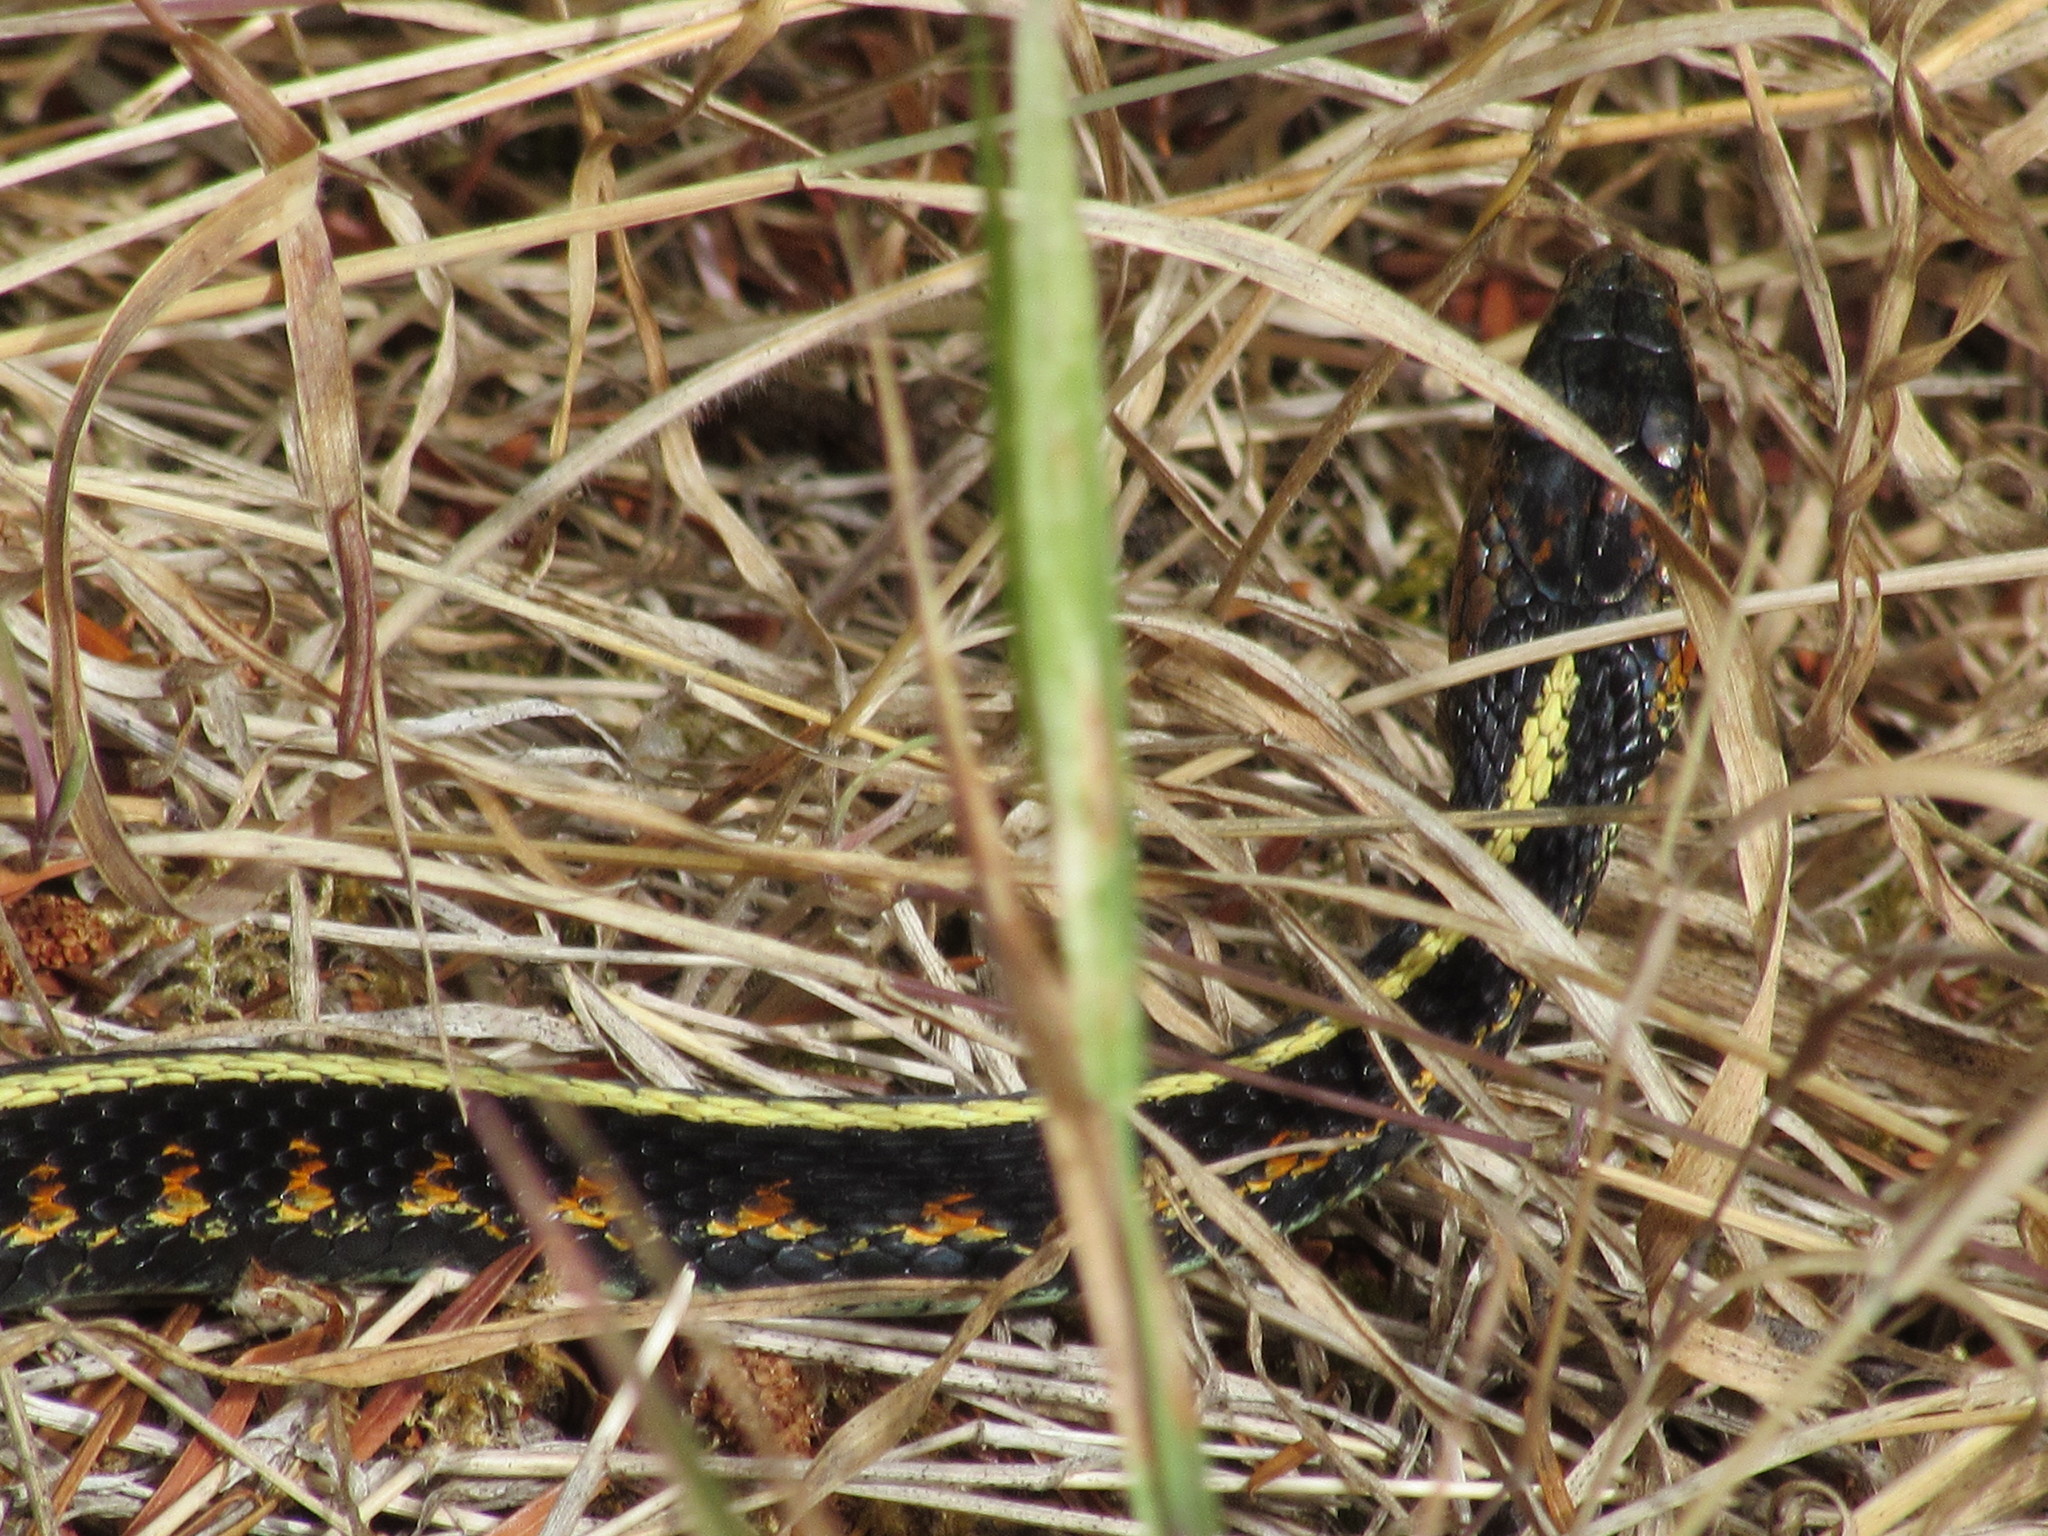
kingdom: Animalia
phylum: Chordata
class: Squamata
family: Colubridae
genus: Thamnophis
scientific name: Thamnophis sirtalis
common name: Common garter snake
